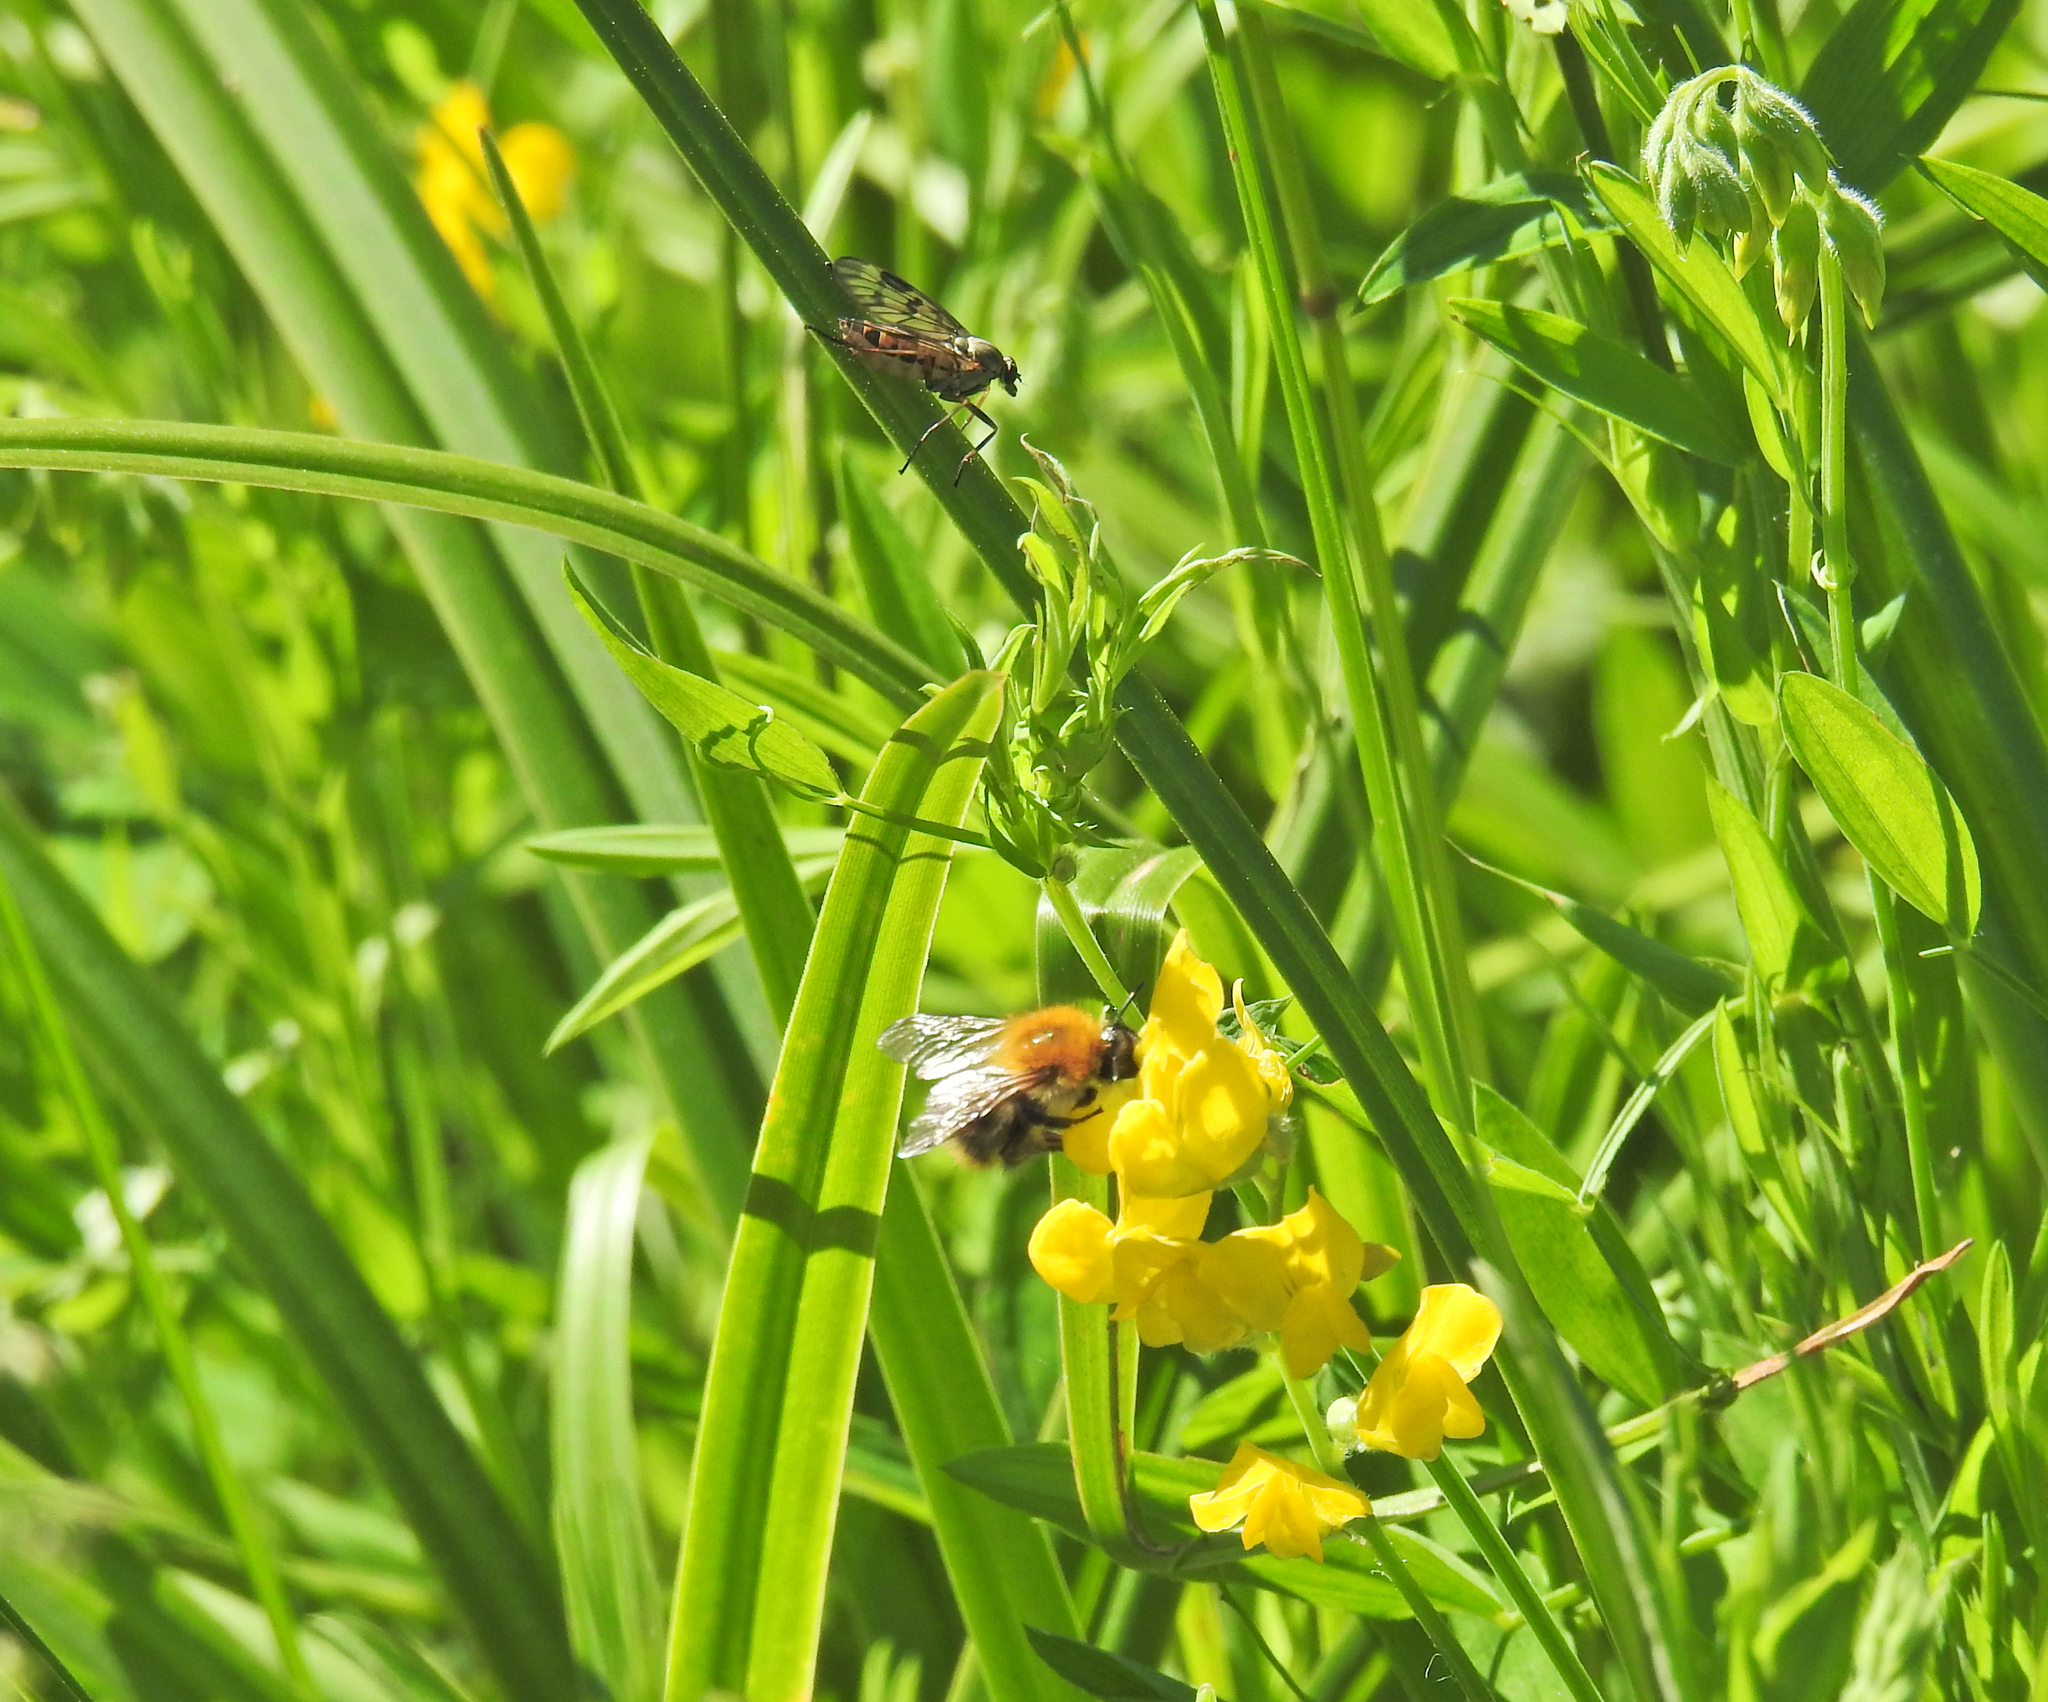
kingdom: Animalia
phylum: Arthropoda
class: Insecta
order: Hymenoptera
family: Apidae
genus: Bombus
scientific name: Bombus pascuorum
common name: Common carder bee
